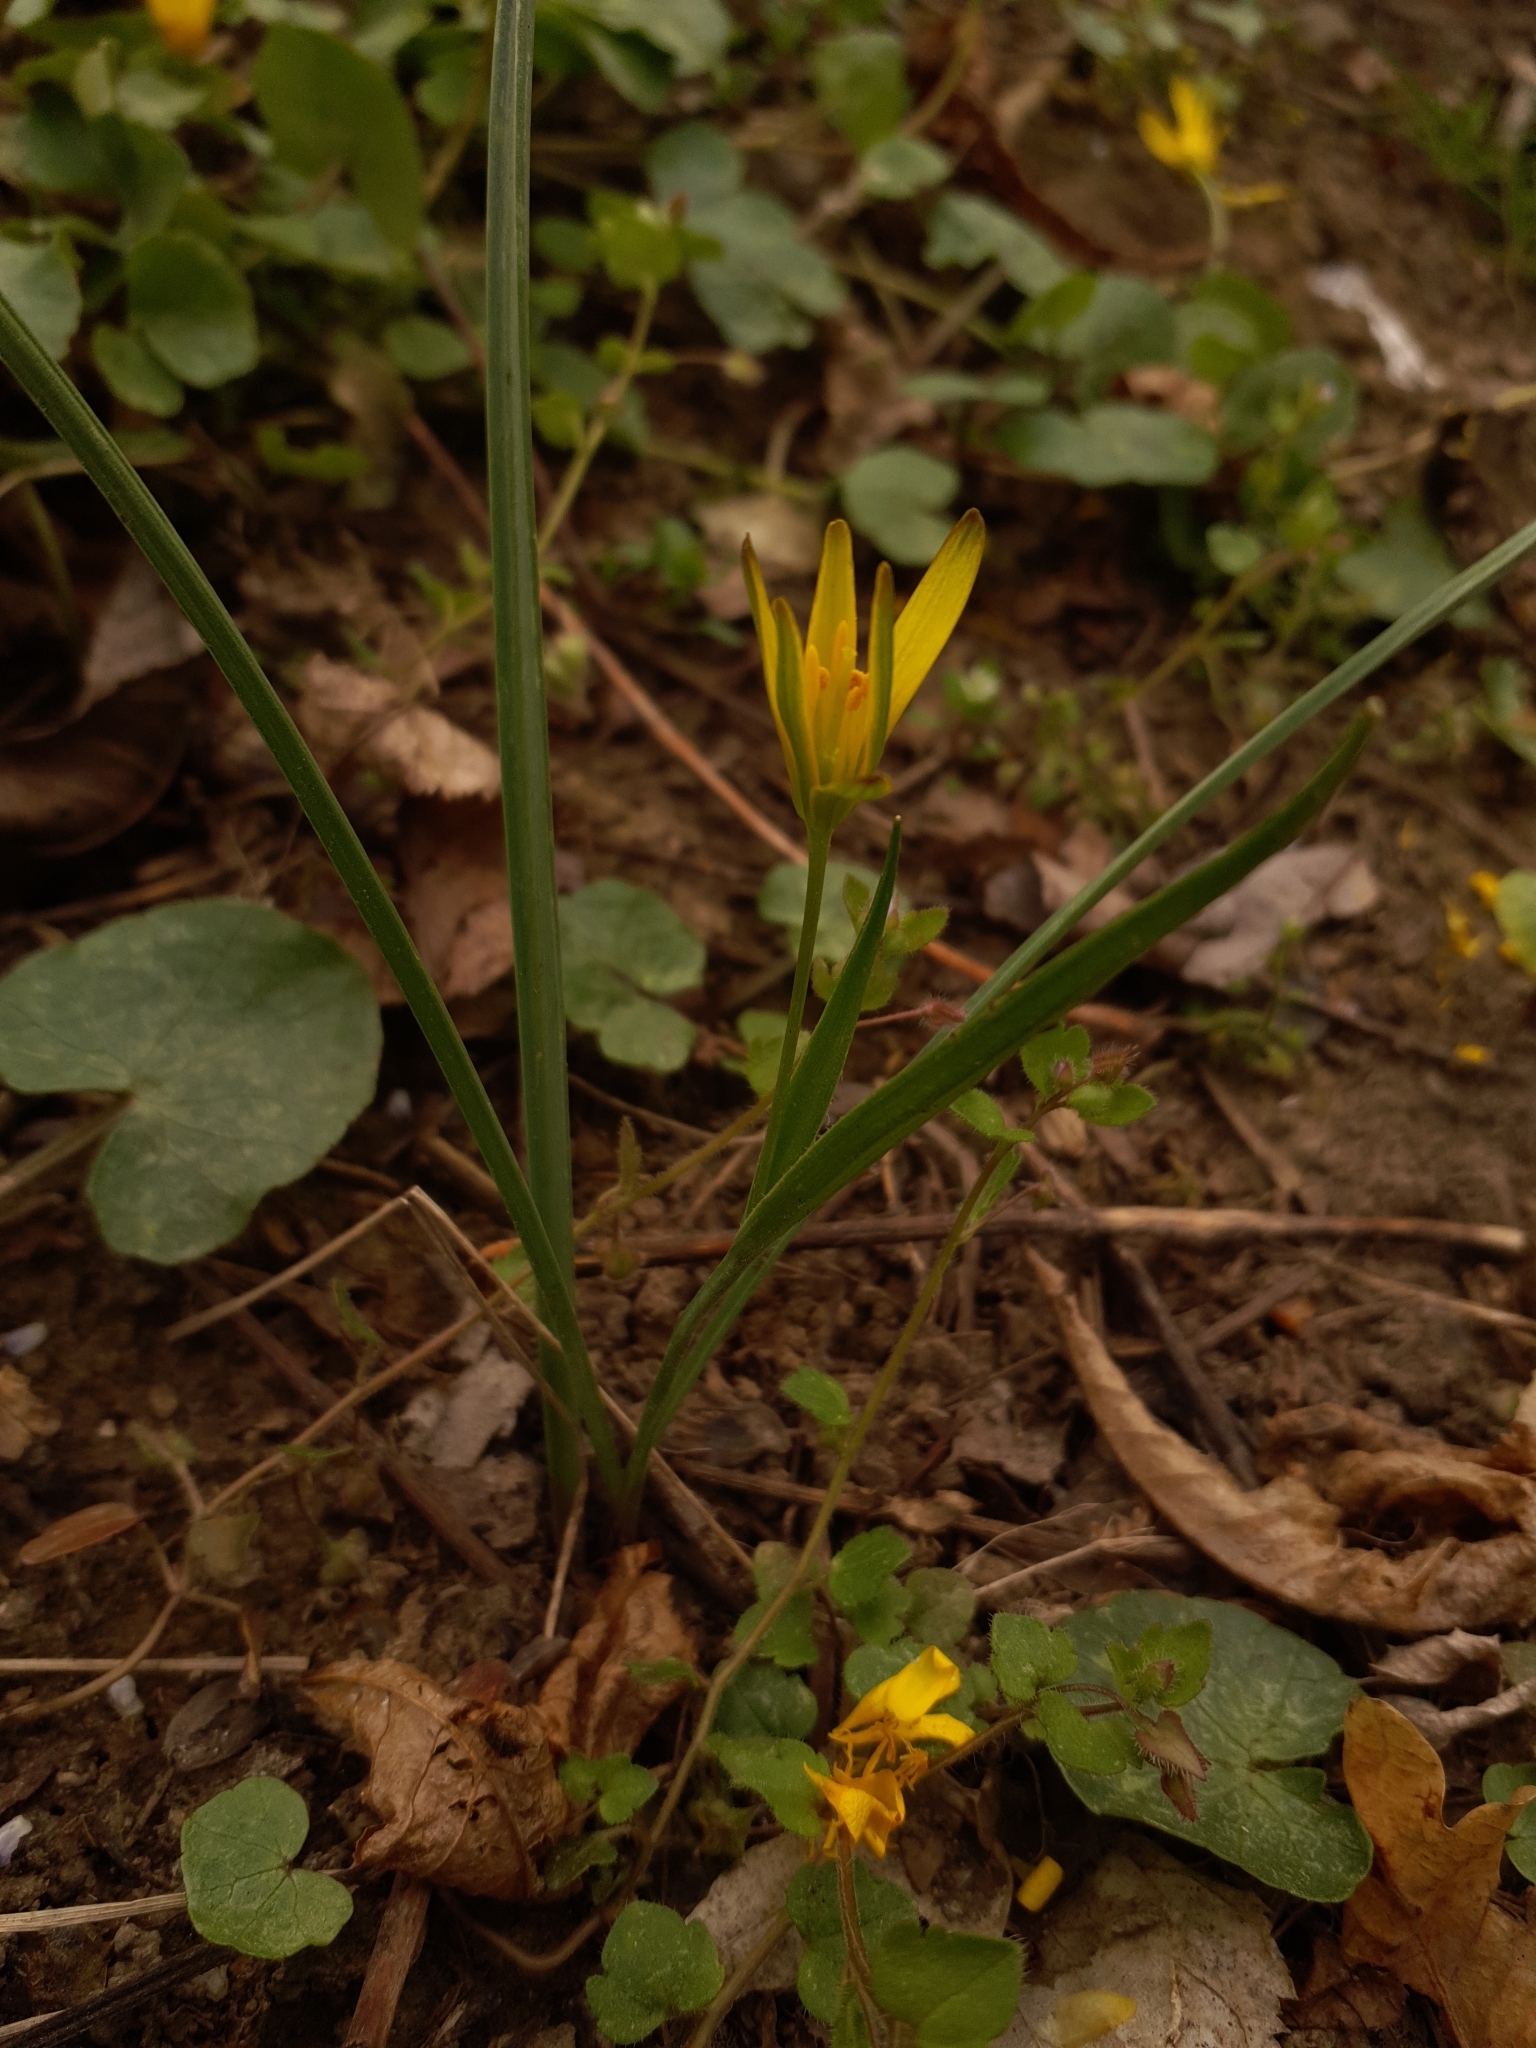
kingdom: Plantae
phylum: Tracheophyta
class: Liliopsida
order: Liliales
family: Liliaceae
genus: Gagea
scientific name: Gagea pratensis
